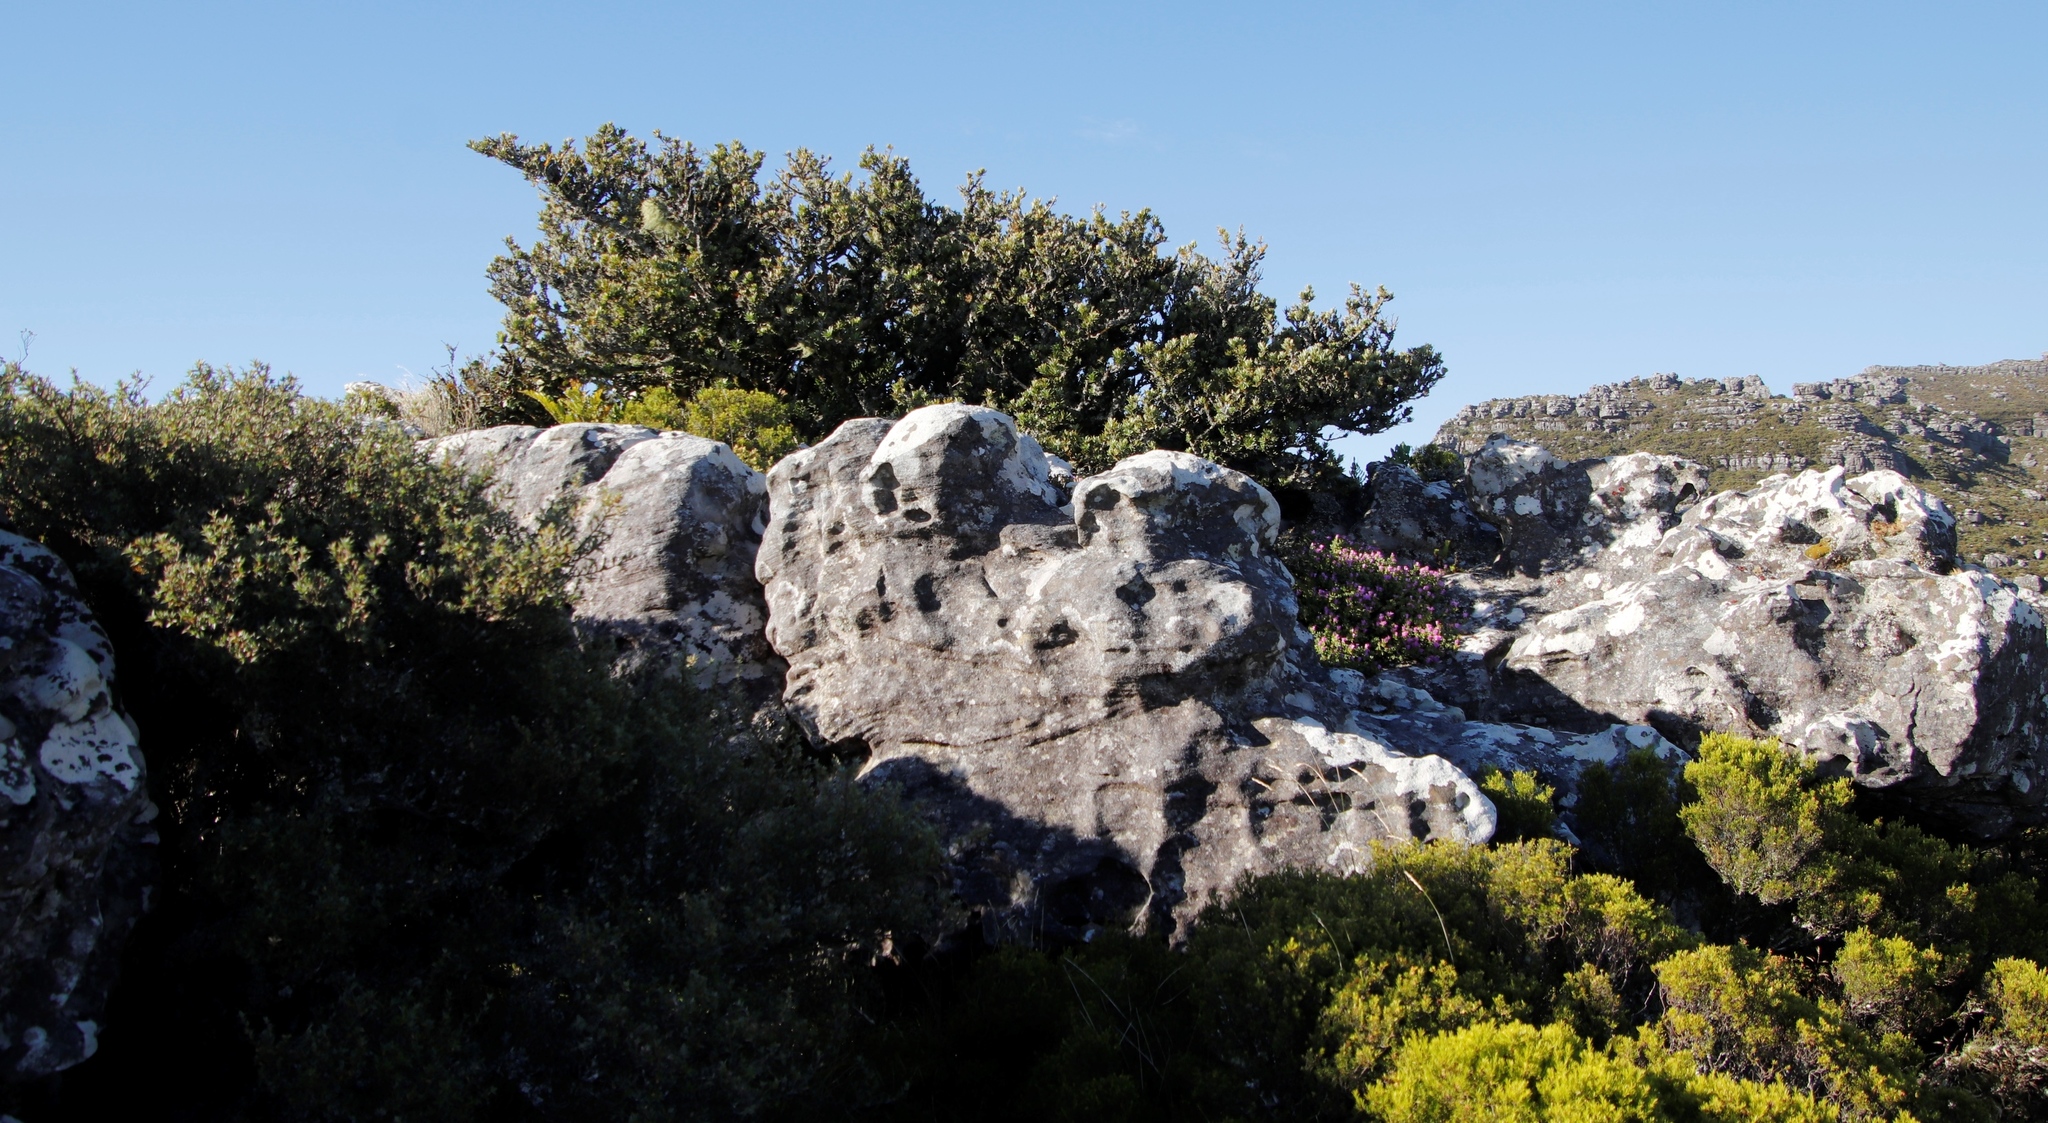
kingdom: Plantae
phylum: Tracheophyta
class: Pinopsida
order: Pinales
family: Podocarpaceae
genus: Podocarpus
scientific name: Podocarpus latifolius
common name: True yellowwood
